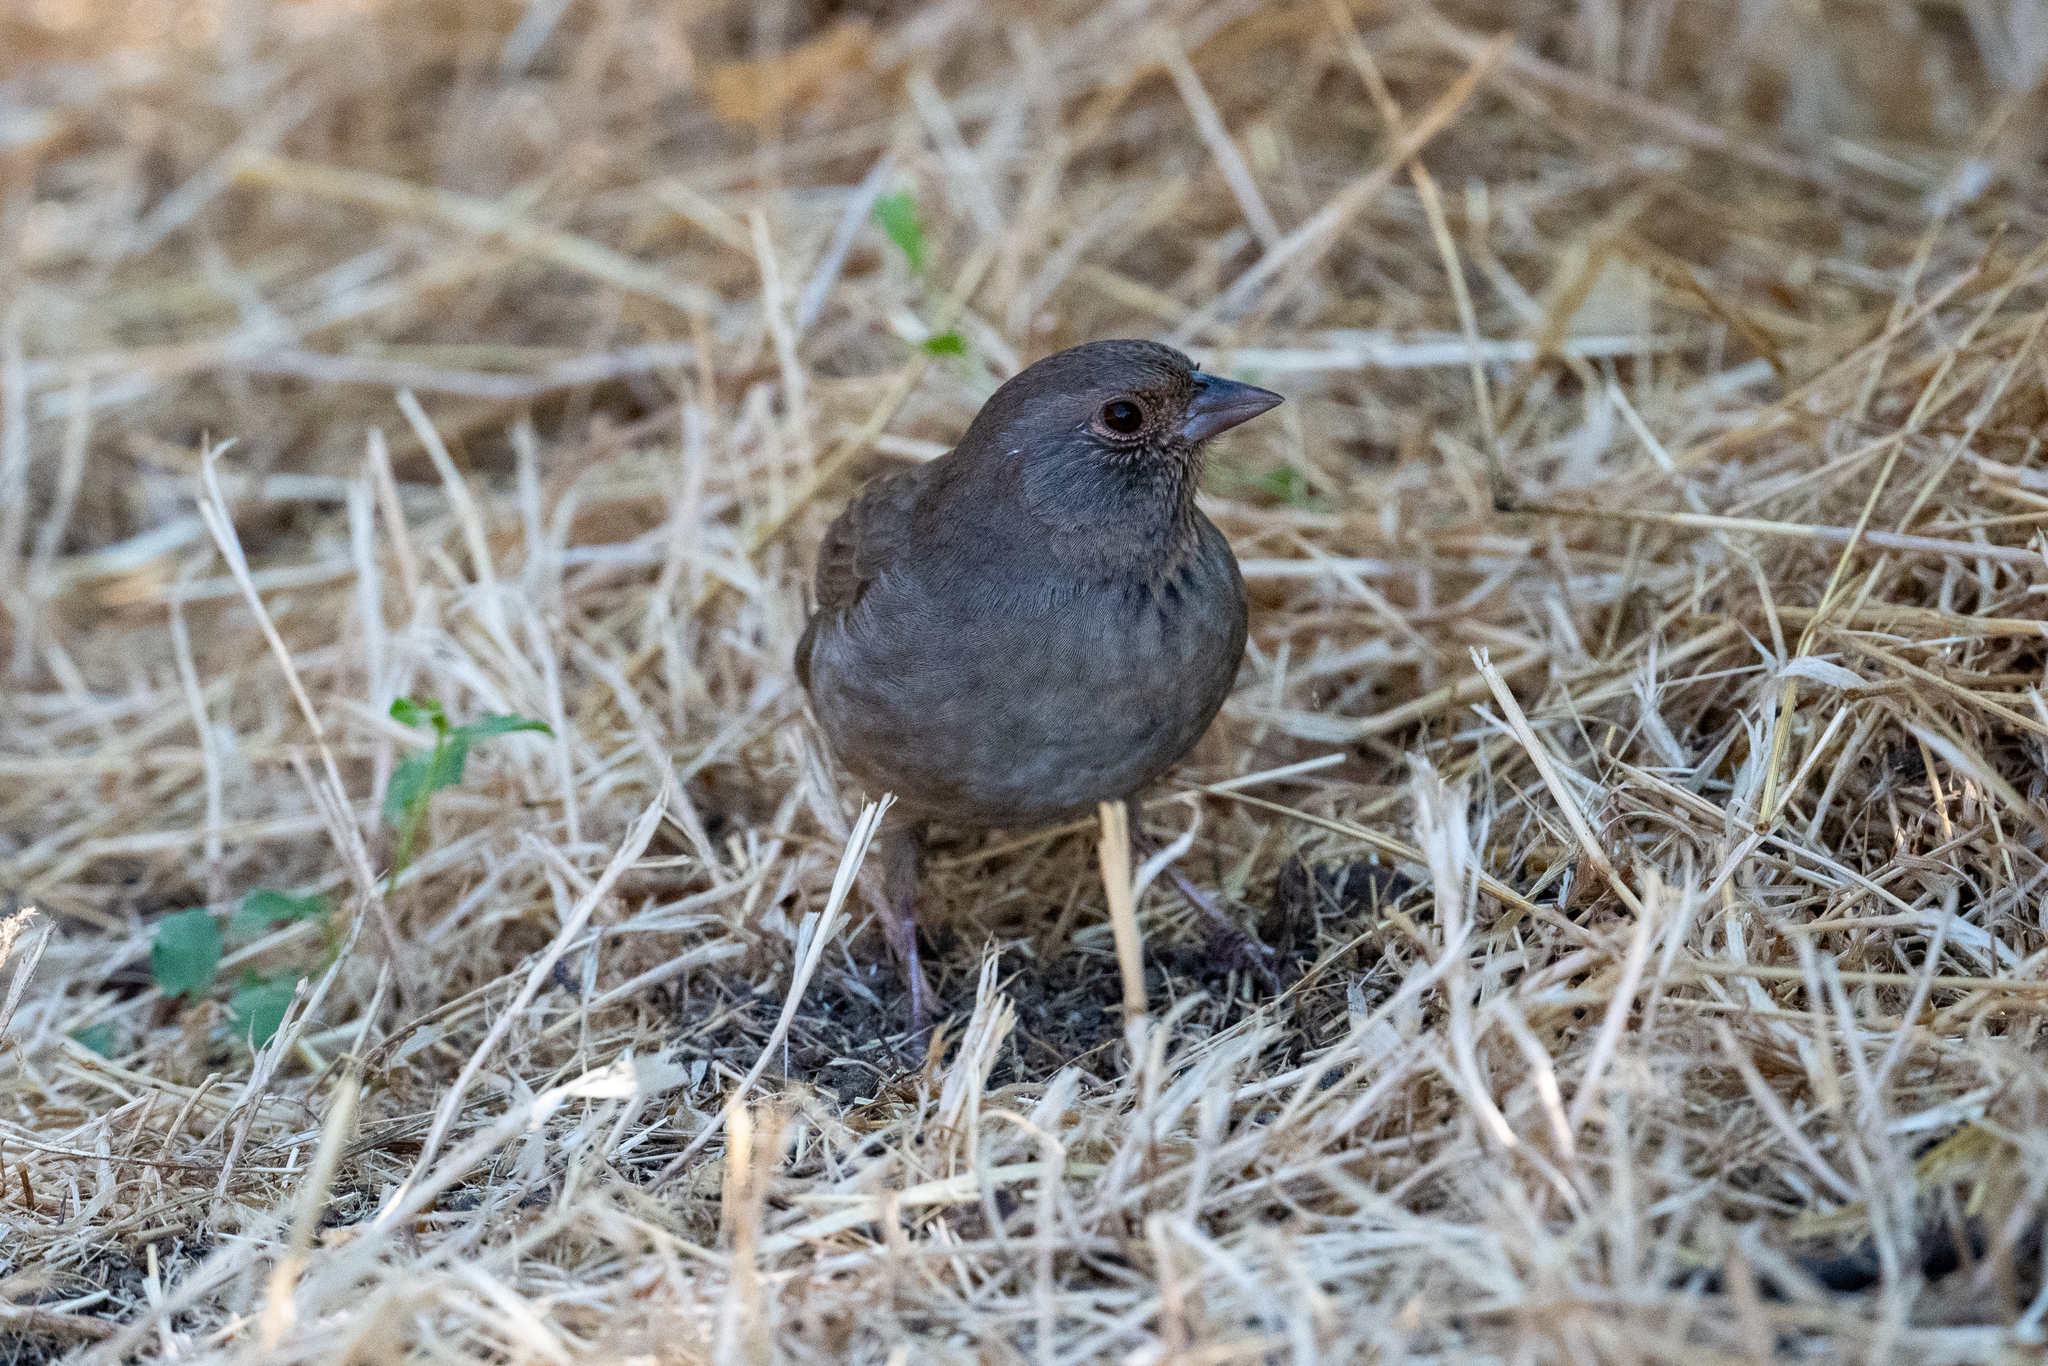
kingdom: Animalia
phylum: Chordata
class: Aves
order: Passeriformes
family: Passerellidae
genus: Melozone
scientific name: Melozone crissalis
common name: California towhee
